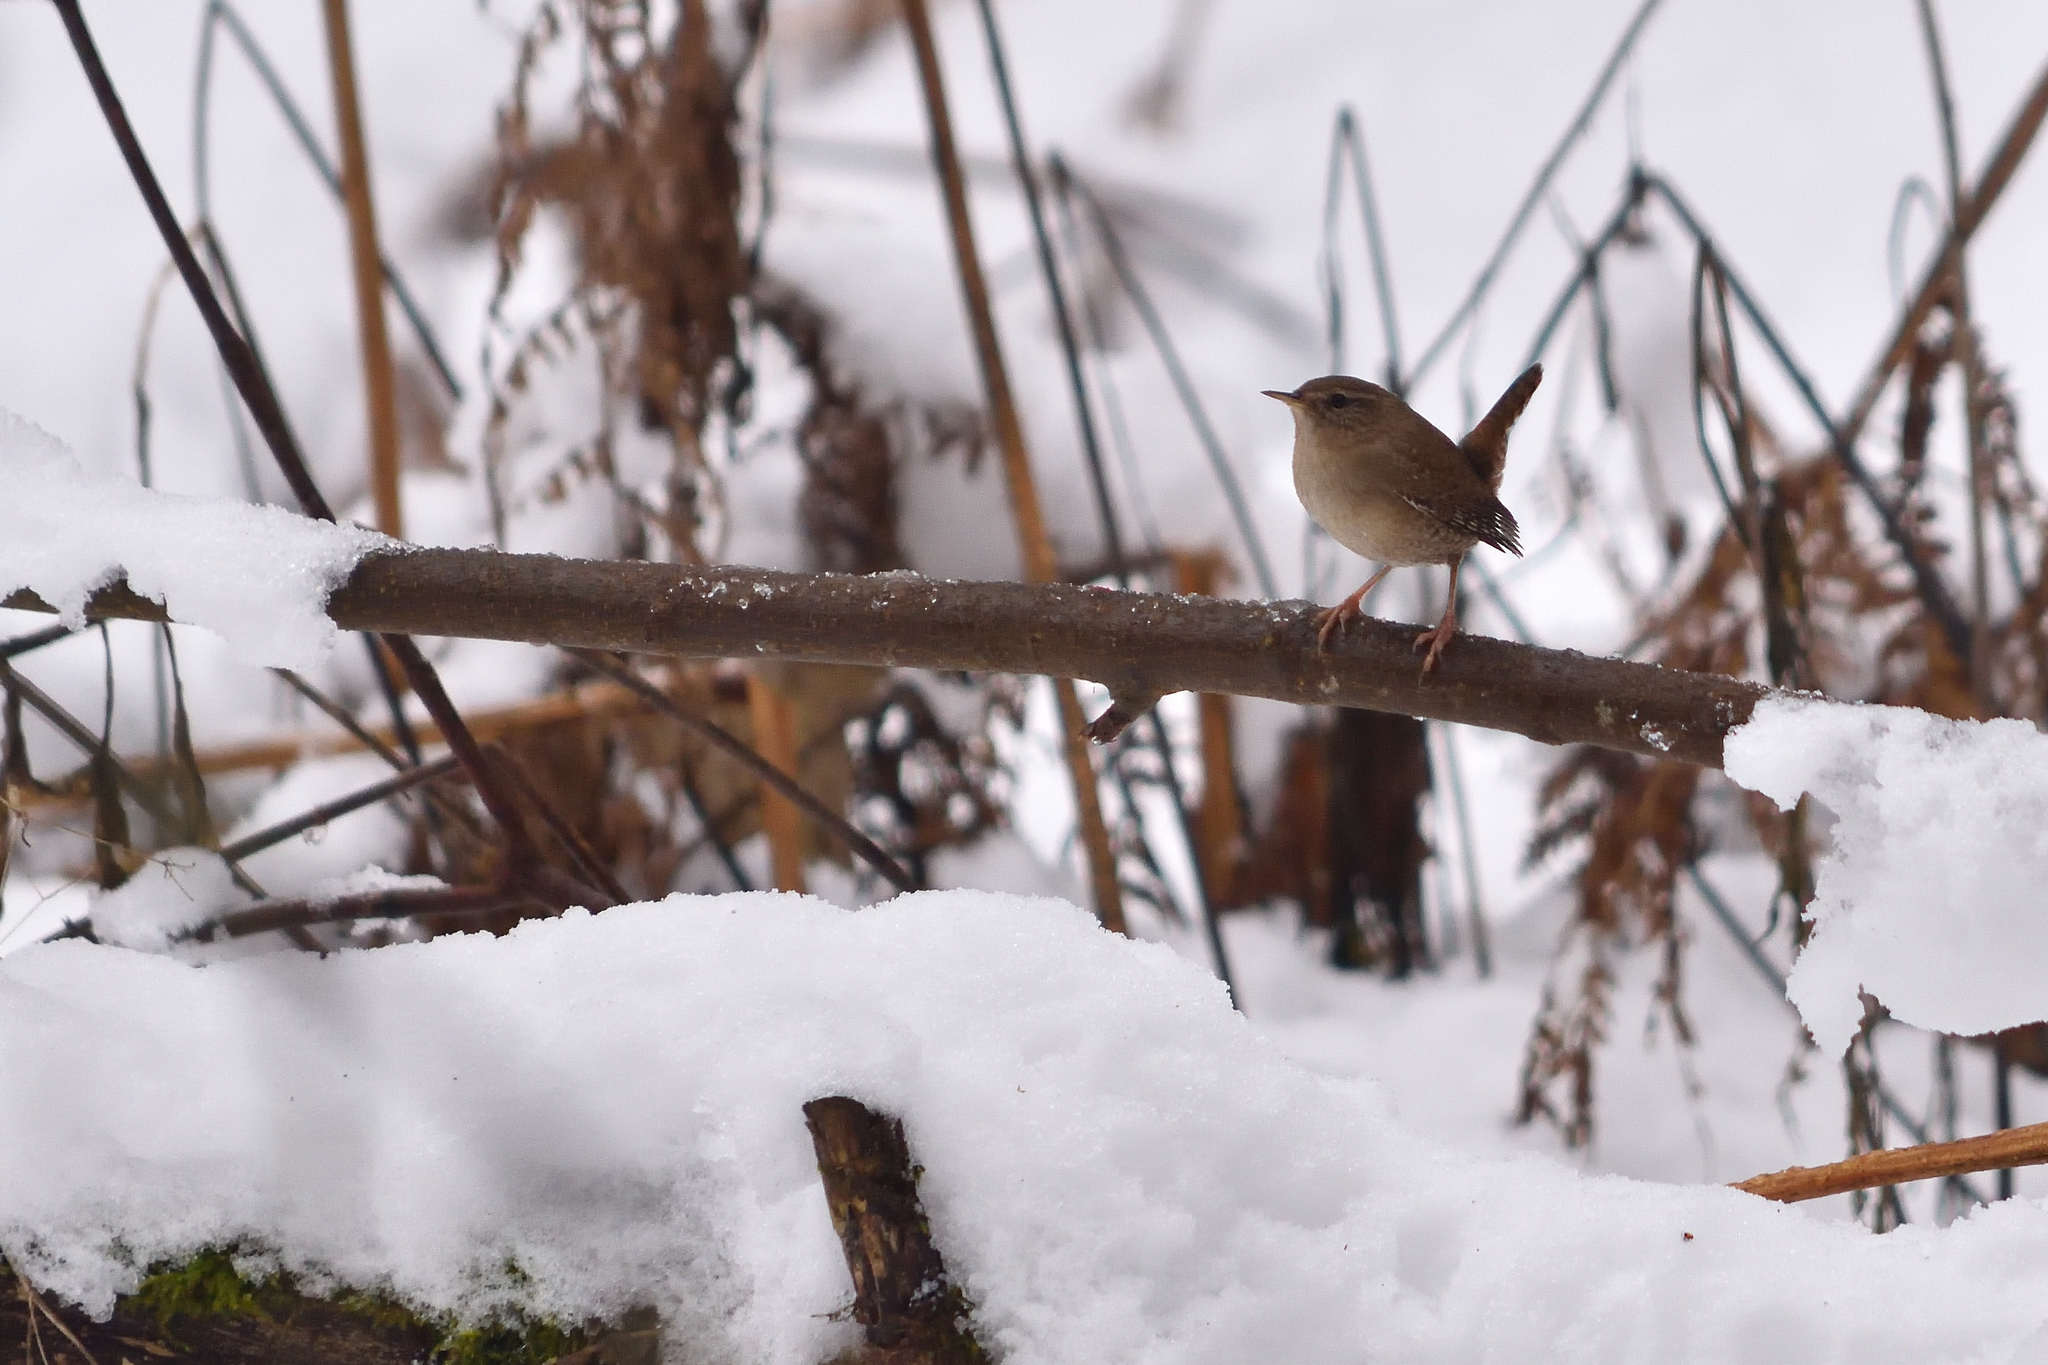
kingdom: Animalia
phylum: Chordata
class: Aves
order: Passeriformes
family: Troglodytidae
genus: Troglodytes
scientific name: Troglodytes troglodytes
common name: Eurasian wren
